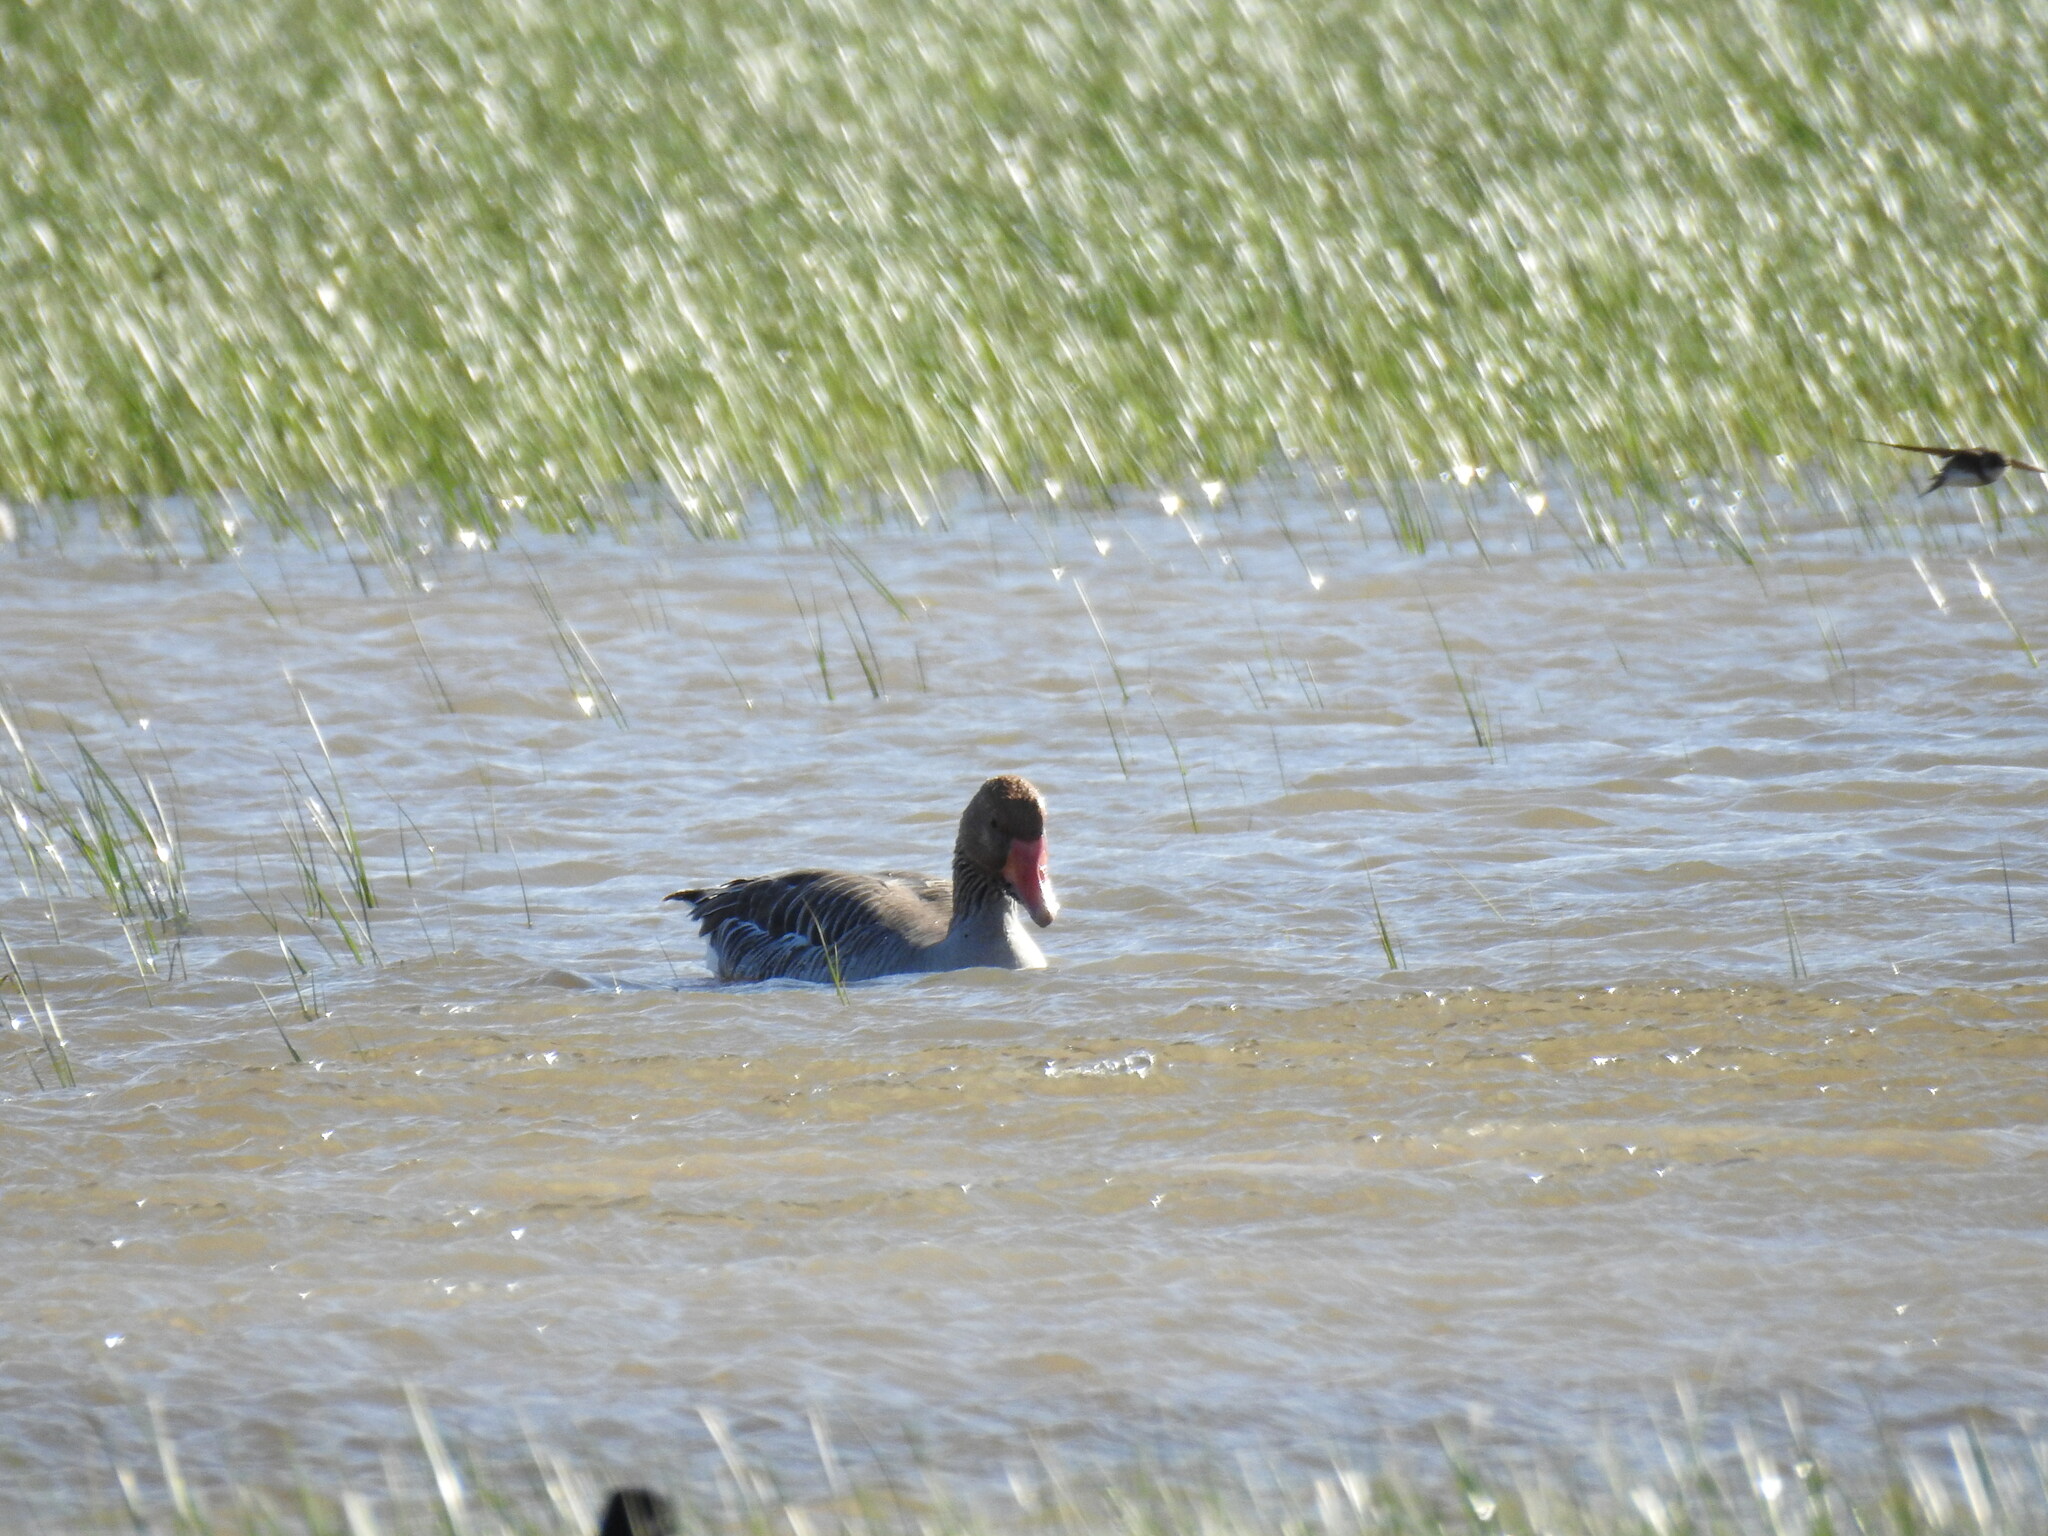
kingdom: Animalia
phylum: Chordata
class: Aves
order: Anseriformes
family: Anatidae
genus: Anser
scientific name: Anser anser
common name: Greylag goose
